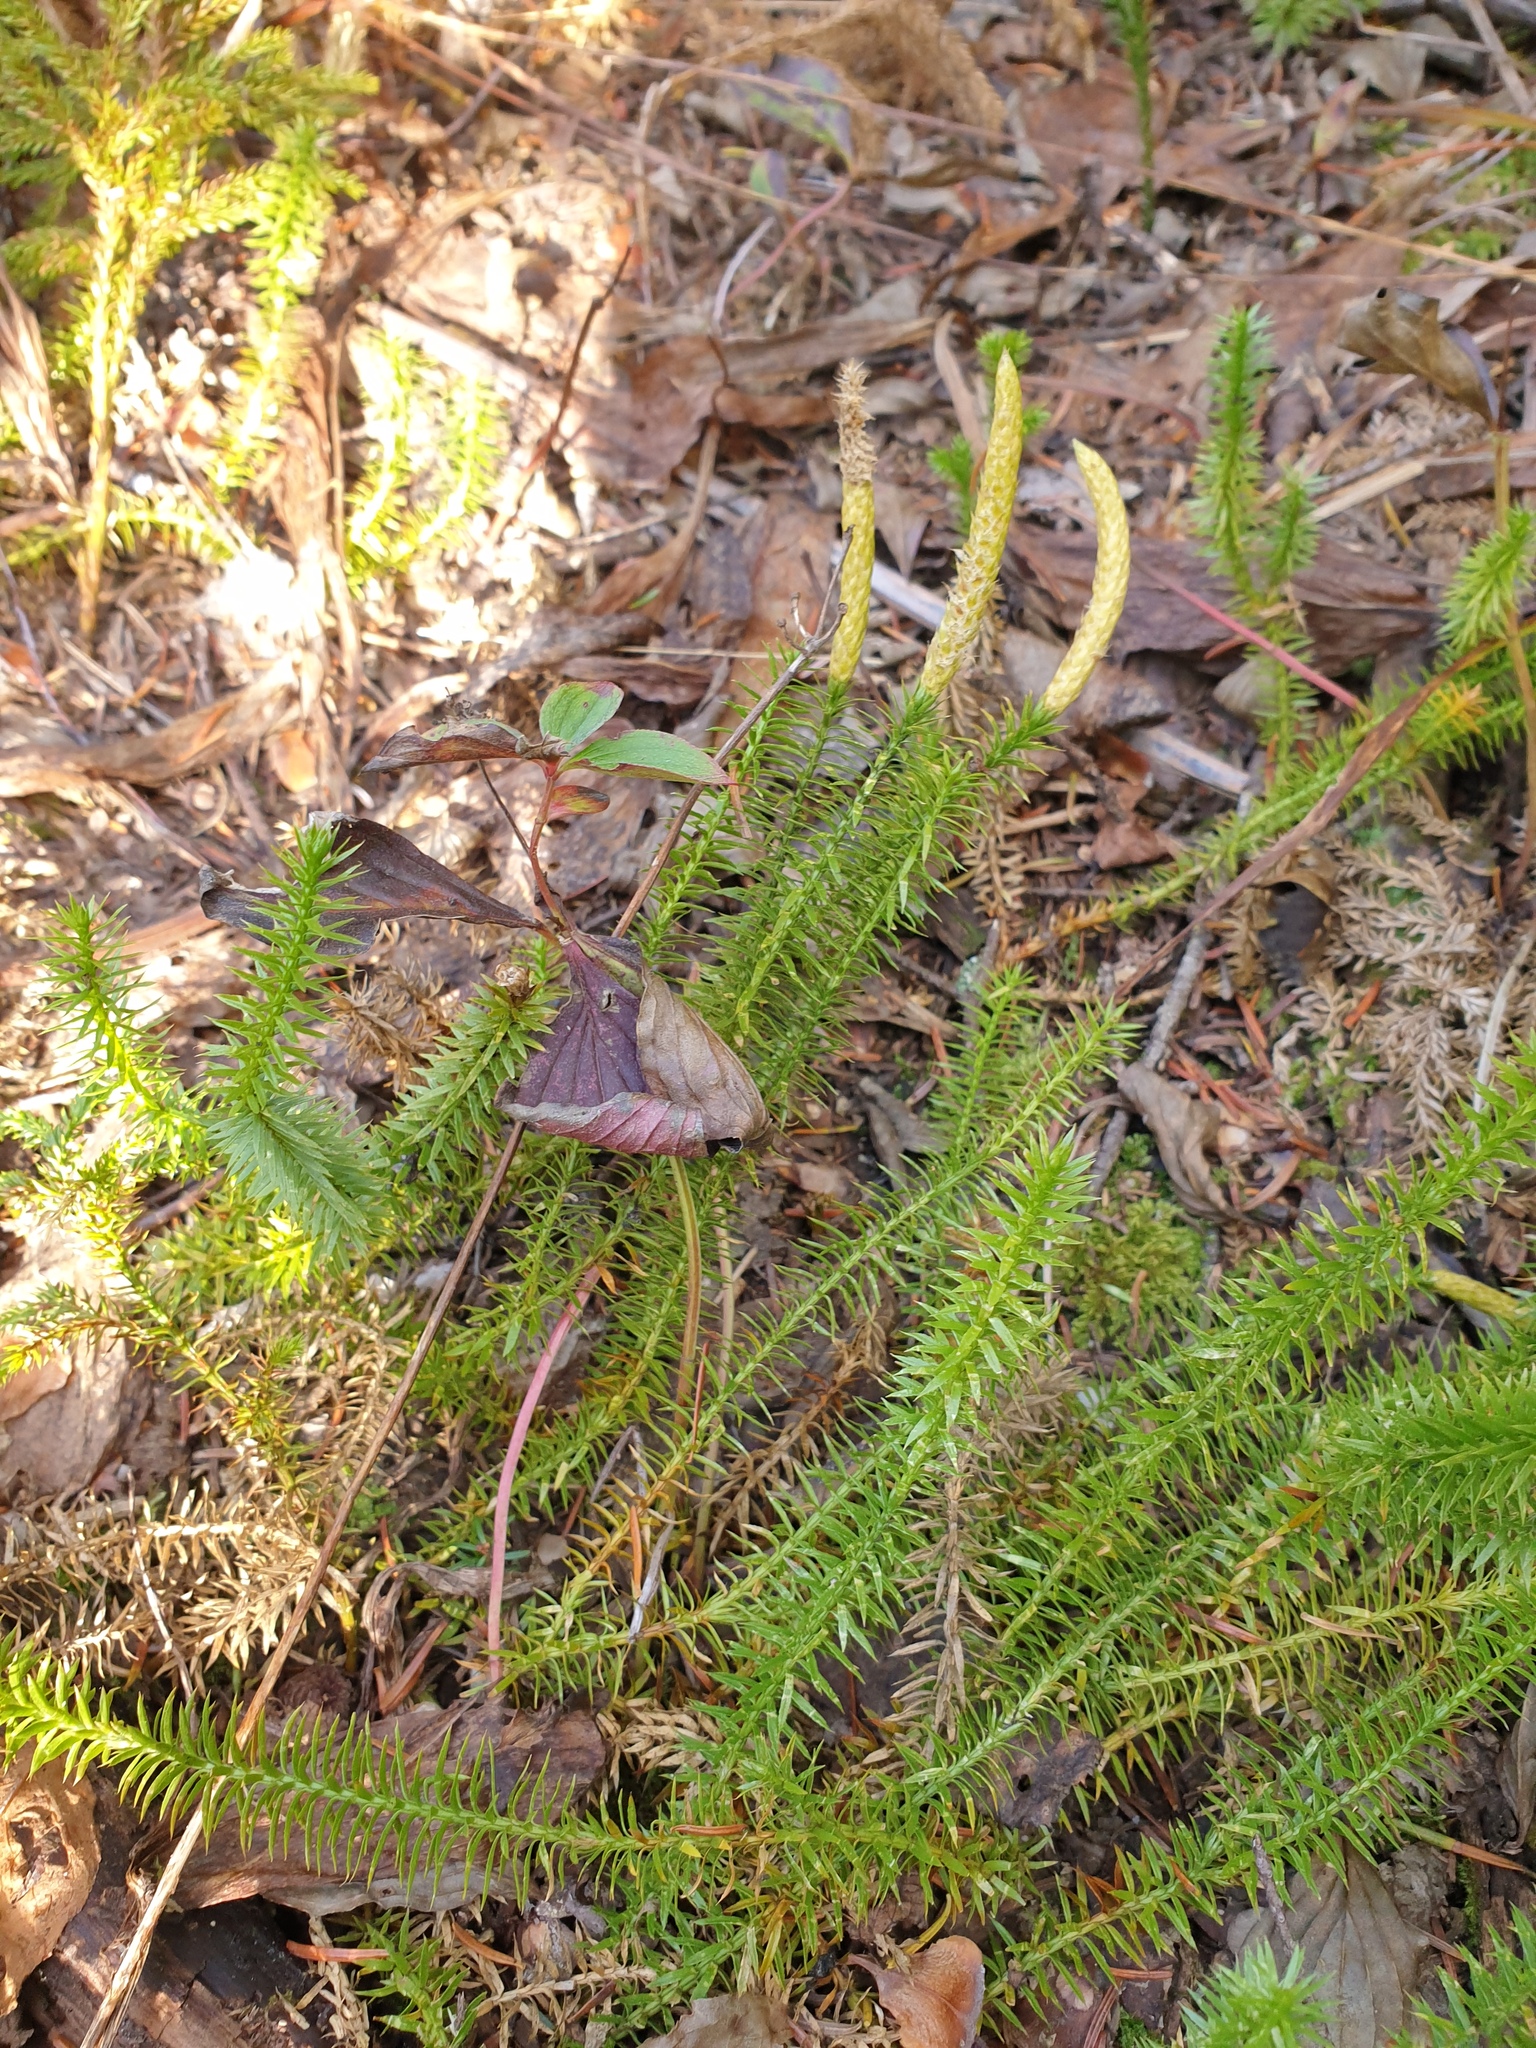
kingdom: Plantae
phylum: Tracheophyta
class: Lycopodiopsida
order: Lycopodiales
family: Lycopodiaceae
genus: Spinulum
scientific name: Spinulum annotinum
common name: Interrupted club-moss
